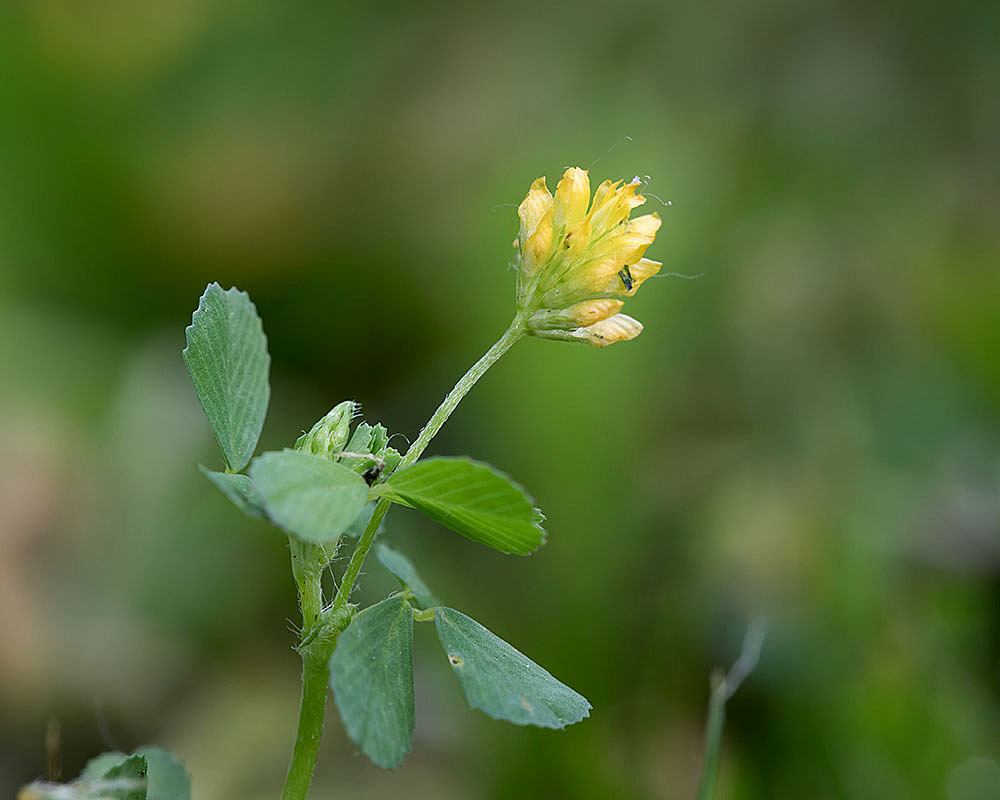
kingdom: Plantae
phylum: Tracheophyta
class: Magnoliopsida
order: Fabales
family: Fabaceae
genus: Trifolium
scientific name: Trifolium dubium
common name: Suckling clover
